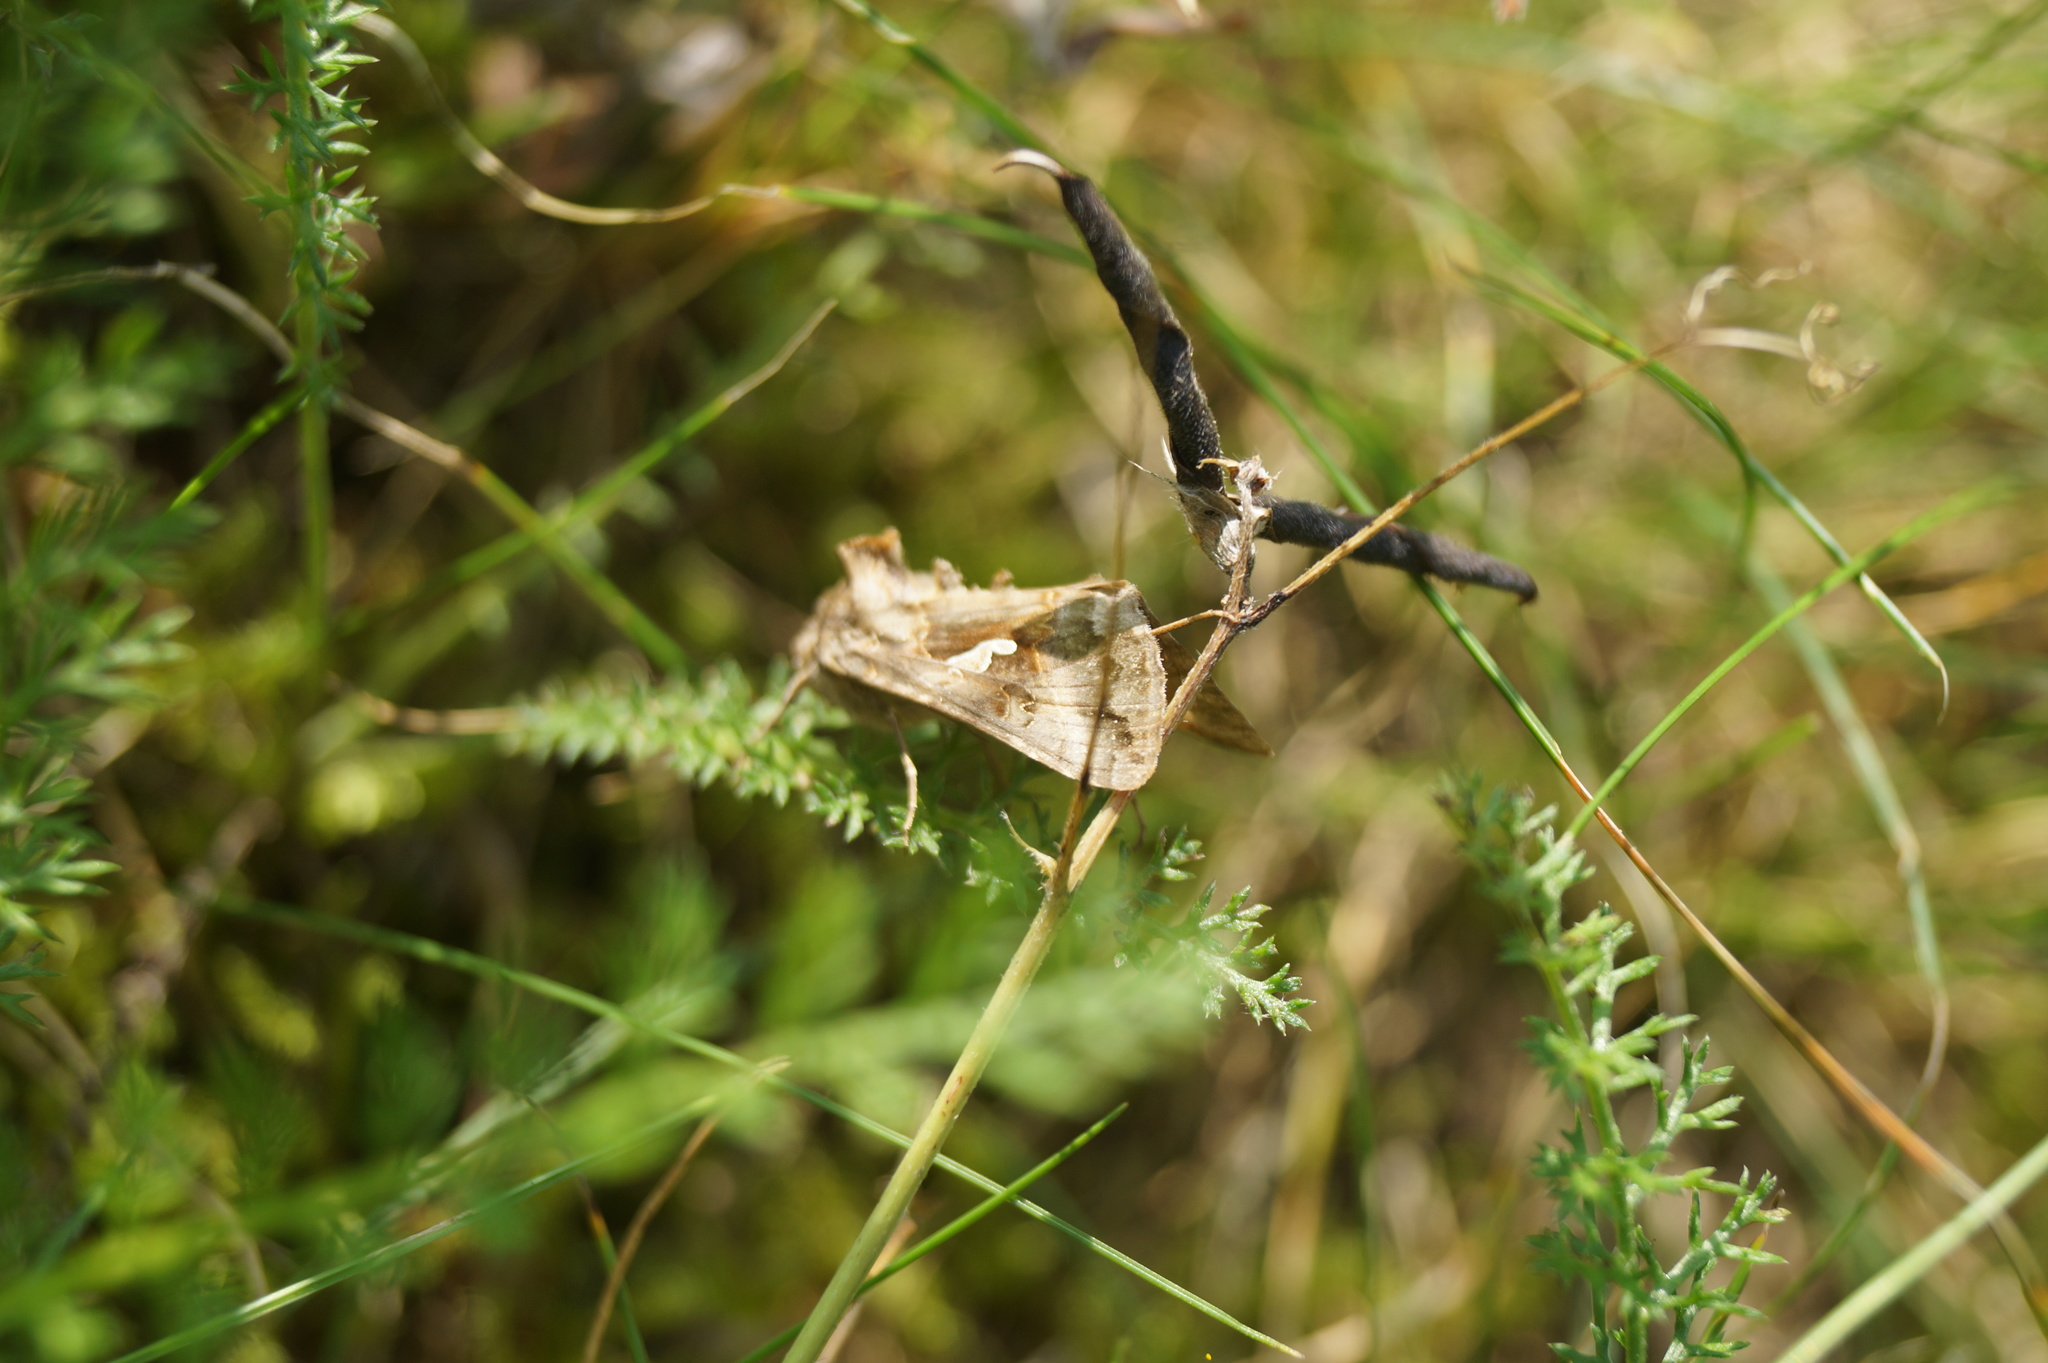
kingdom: Animalia
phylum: Arthropoda
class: Insecta
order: Lepidoptera
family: Noctuidae
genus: Autographa
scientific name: Autographa gamma
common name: Silver y
